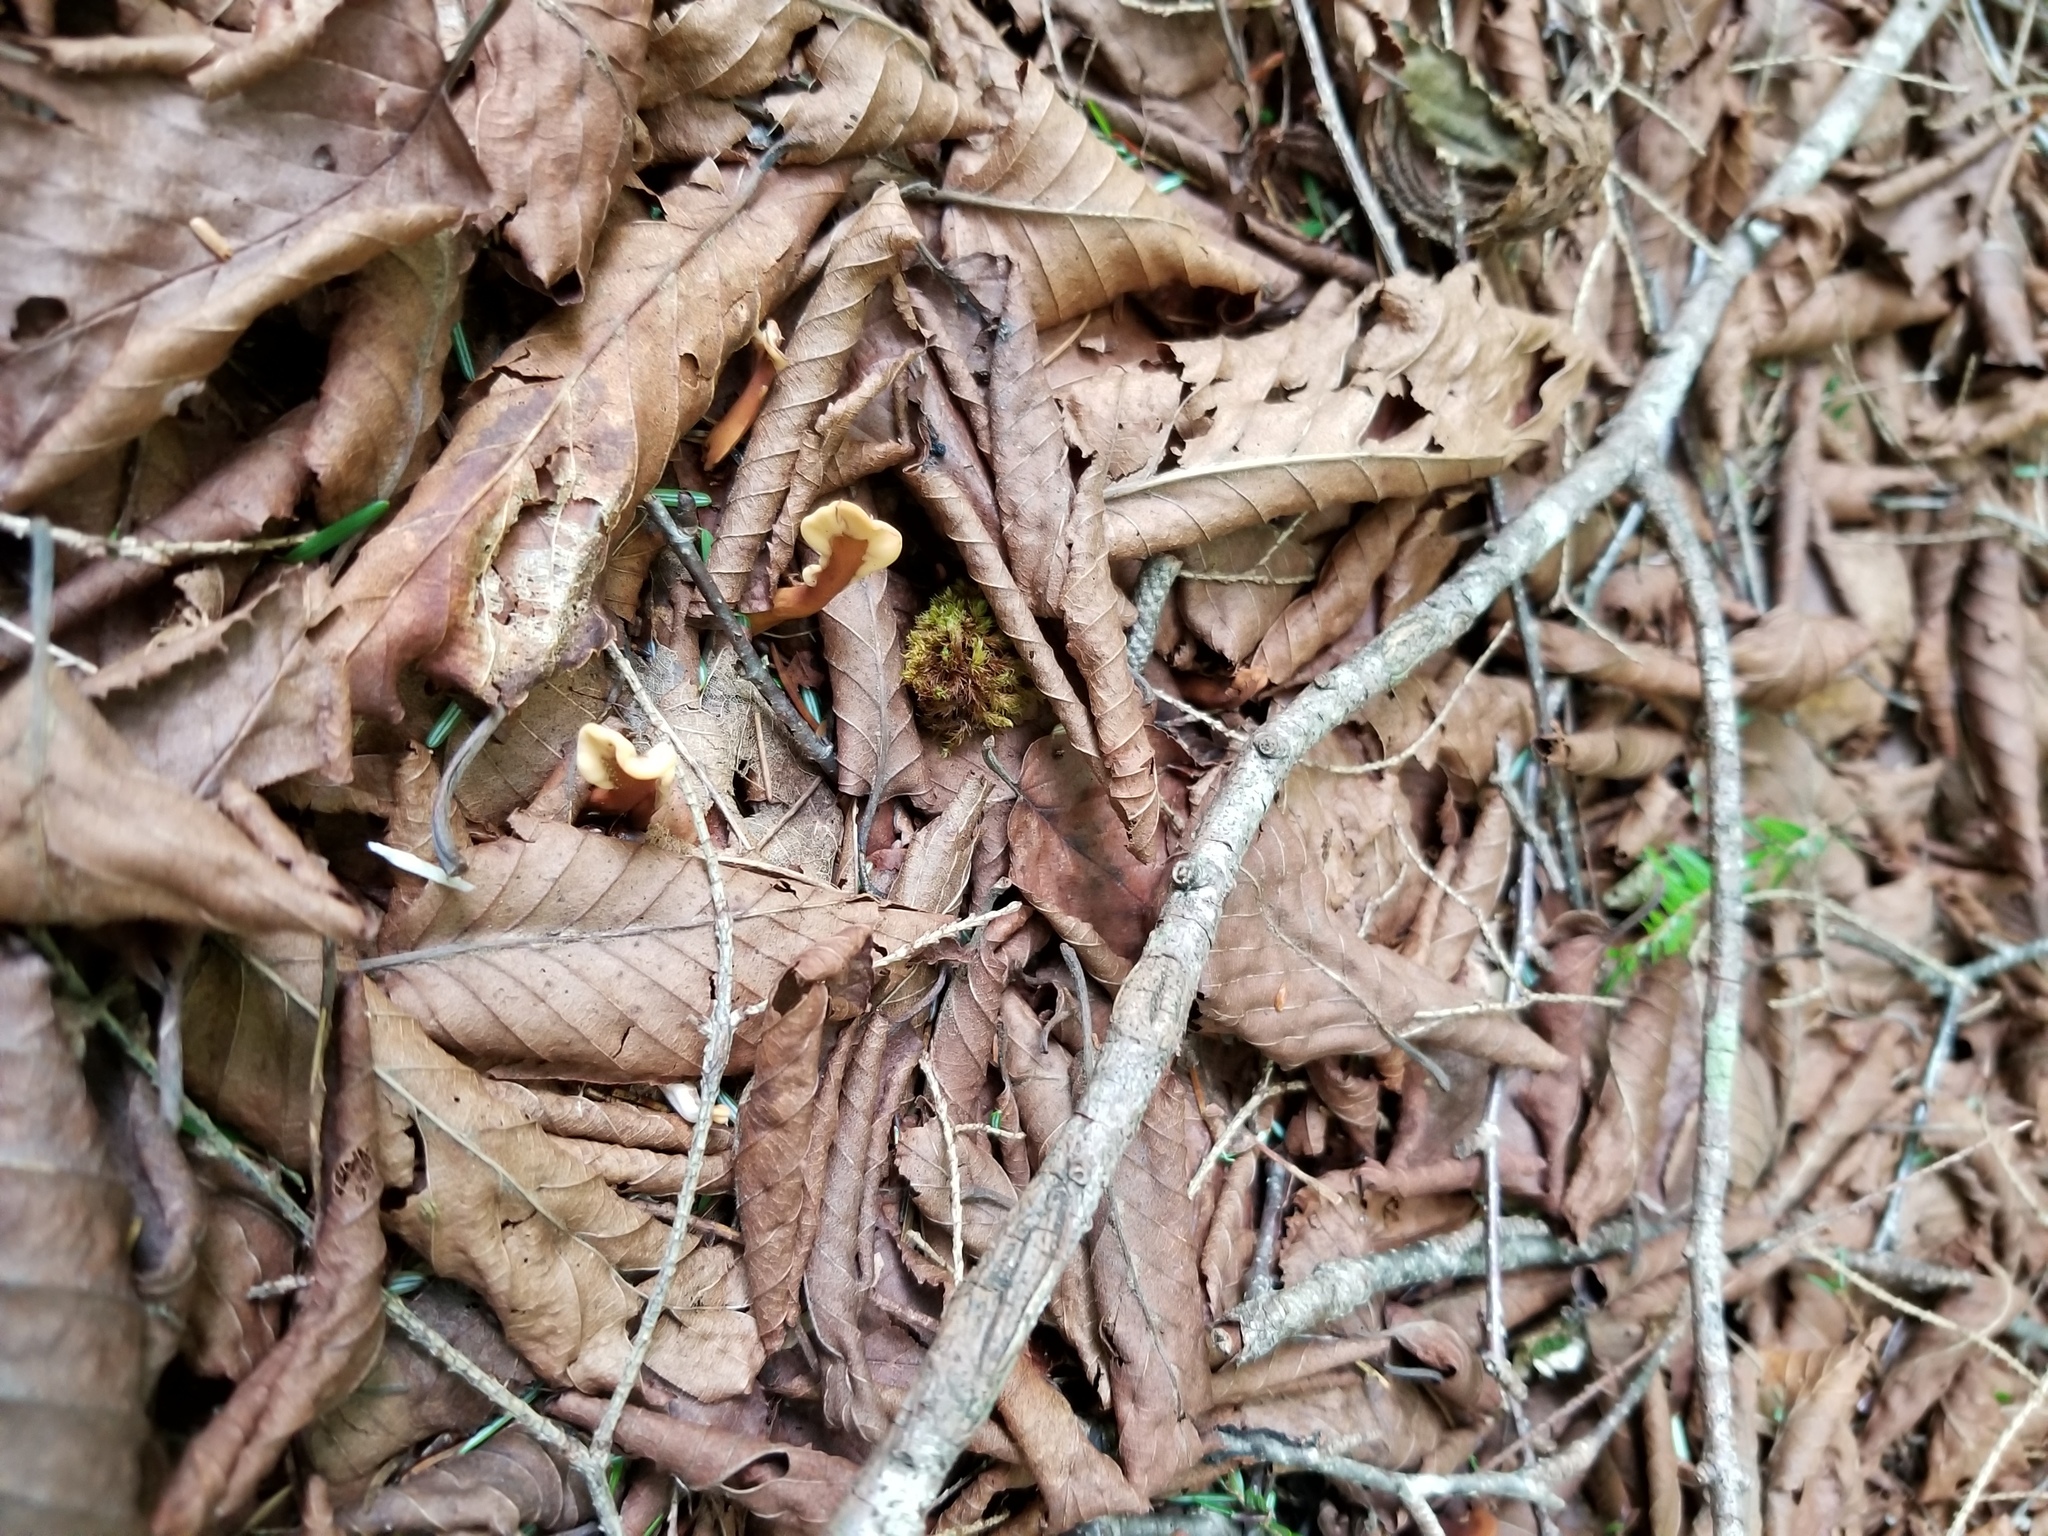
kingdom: Fungi
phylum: Ascomycota
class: Leotiomycetes
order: Rhytismatales
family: Cudoniaceae
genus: Spathulariopsis
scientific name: Spathulariopsis velutipes
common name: Velvet-foot fairy fan
